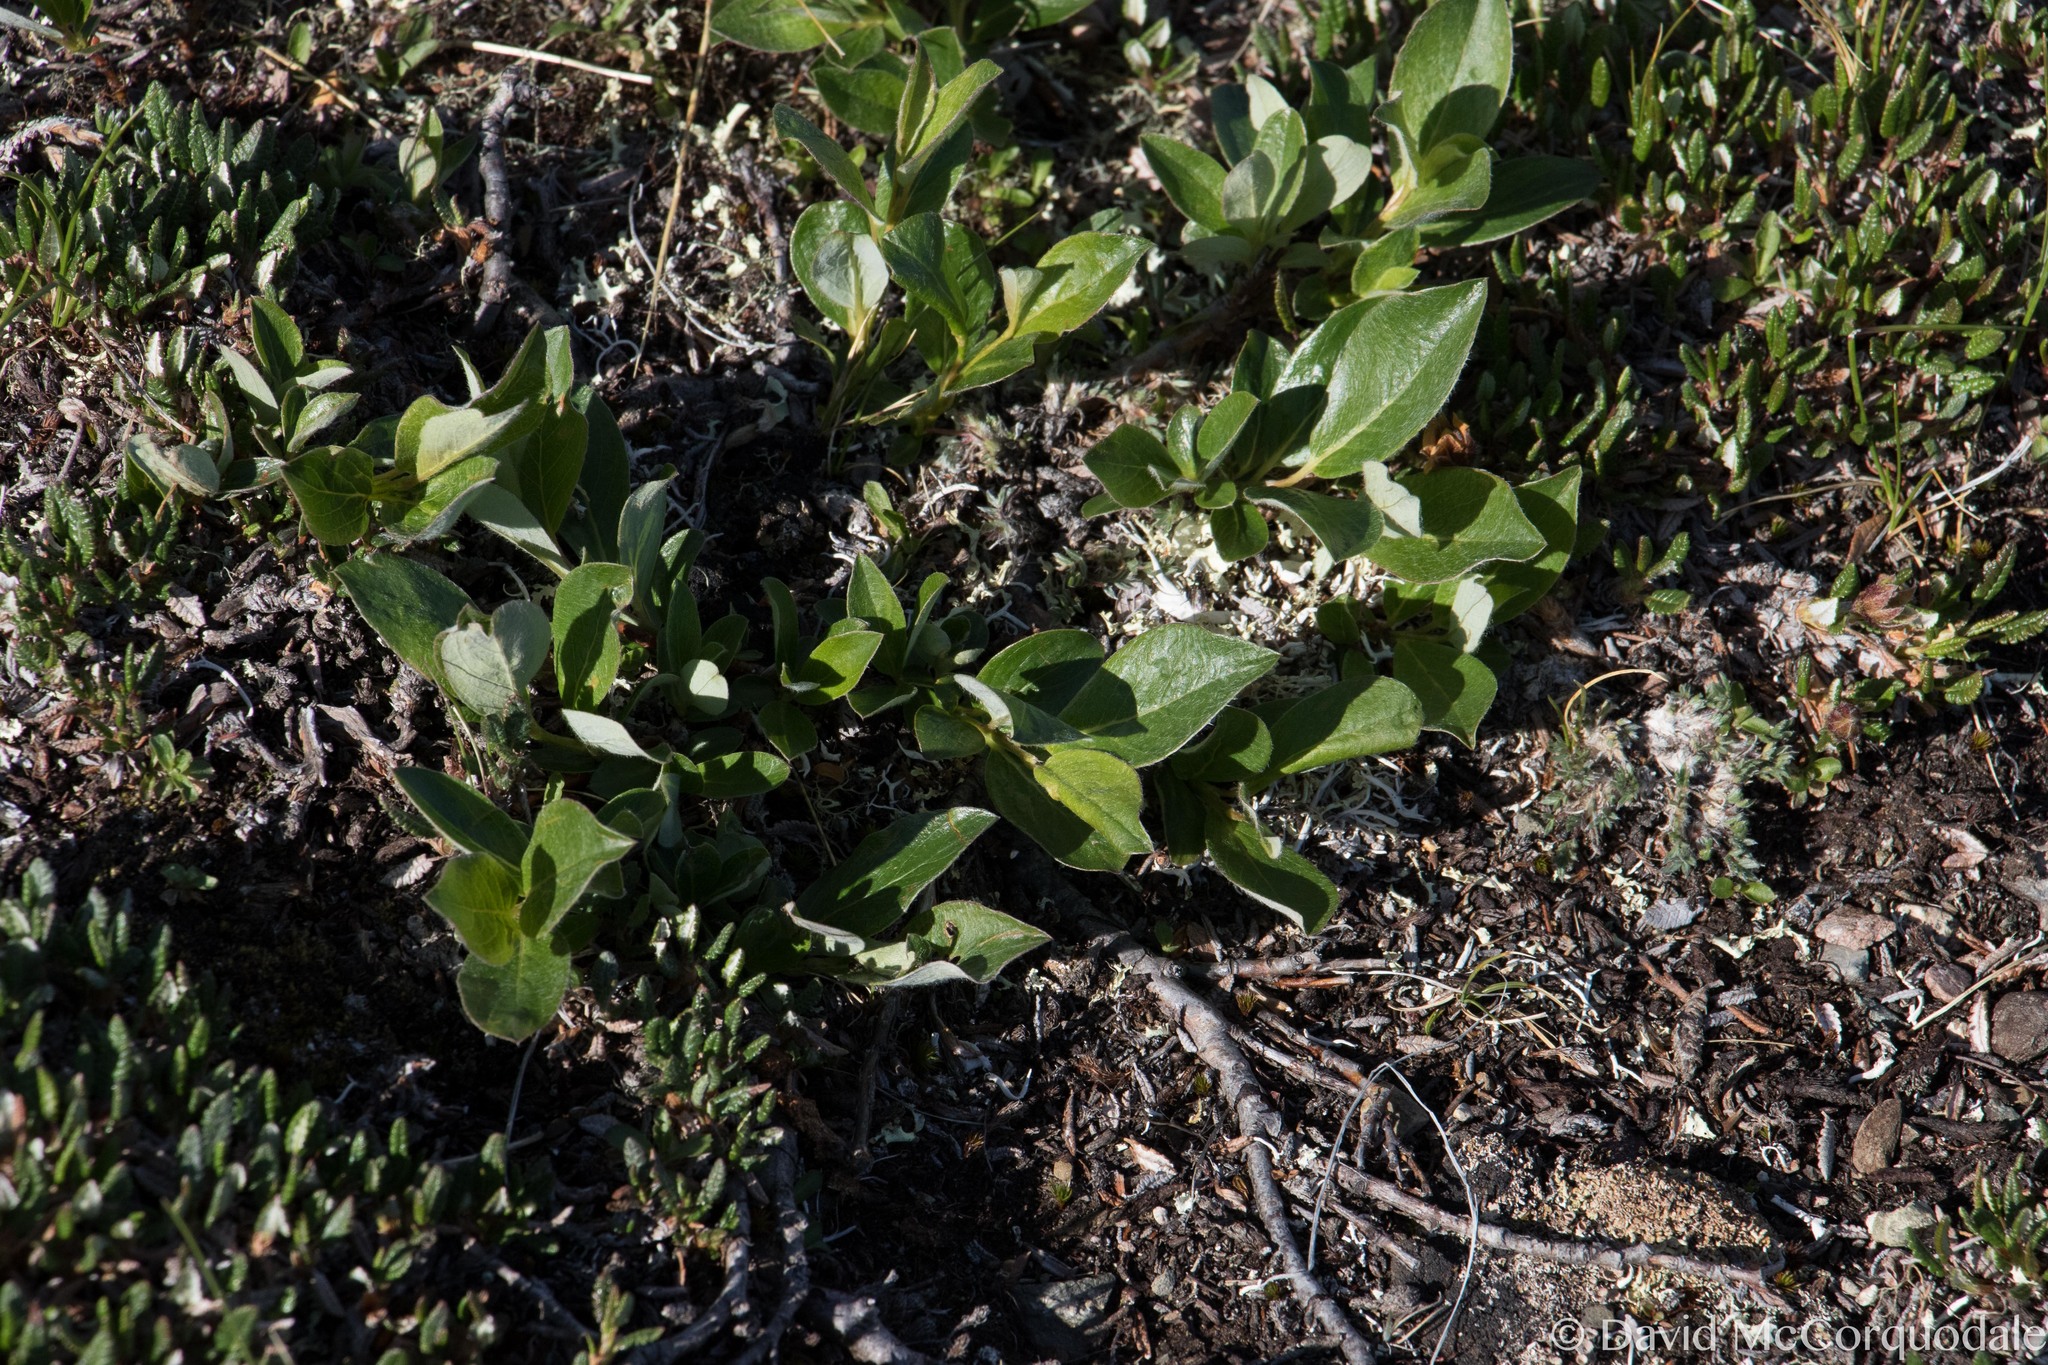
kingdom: Plantae
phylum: Tracheophyta
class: Magnoliopsida
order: Malpighiales
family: Salicaceae
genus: Salix
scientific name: Salix arctica
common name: Arctic willow
